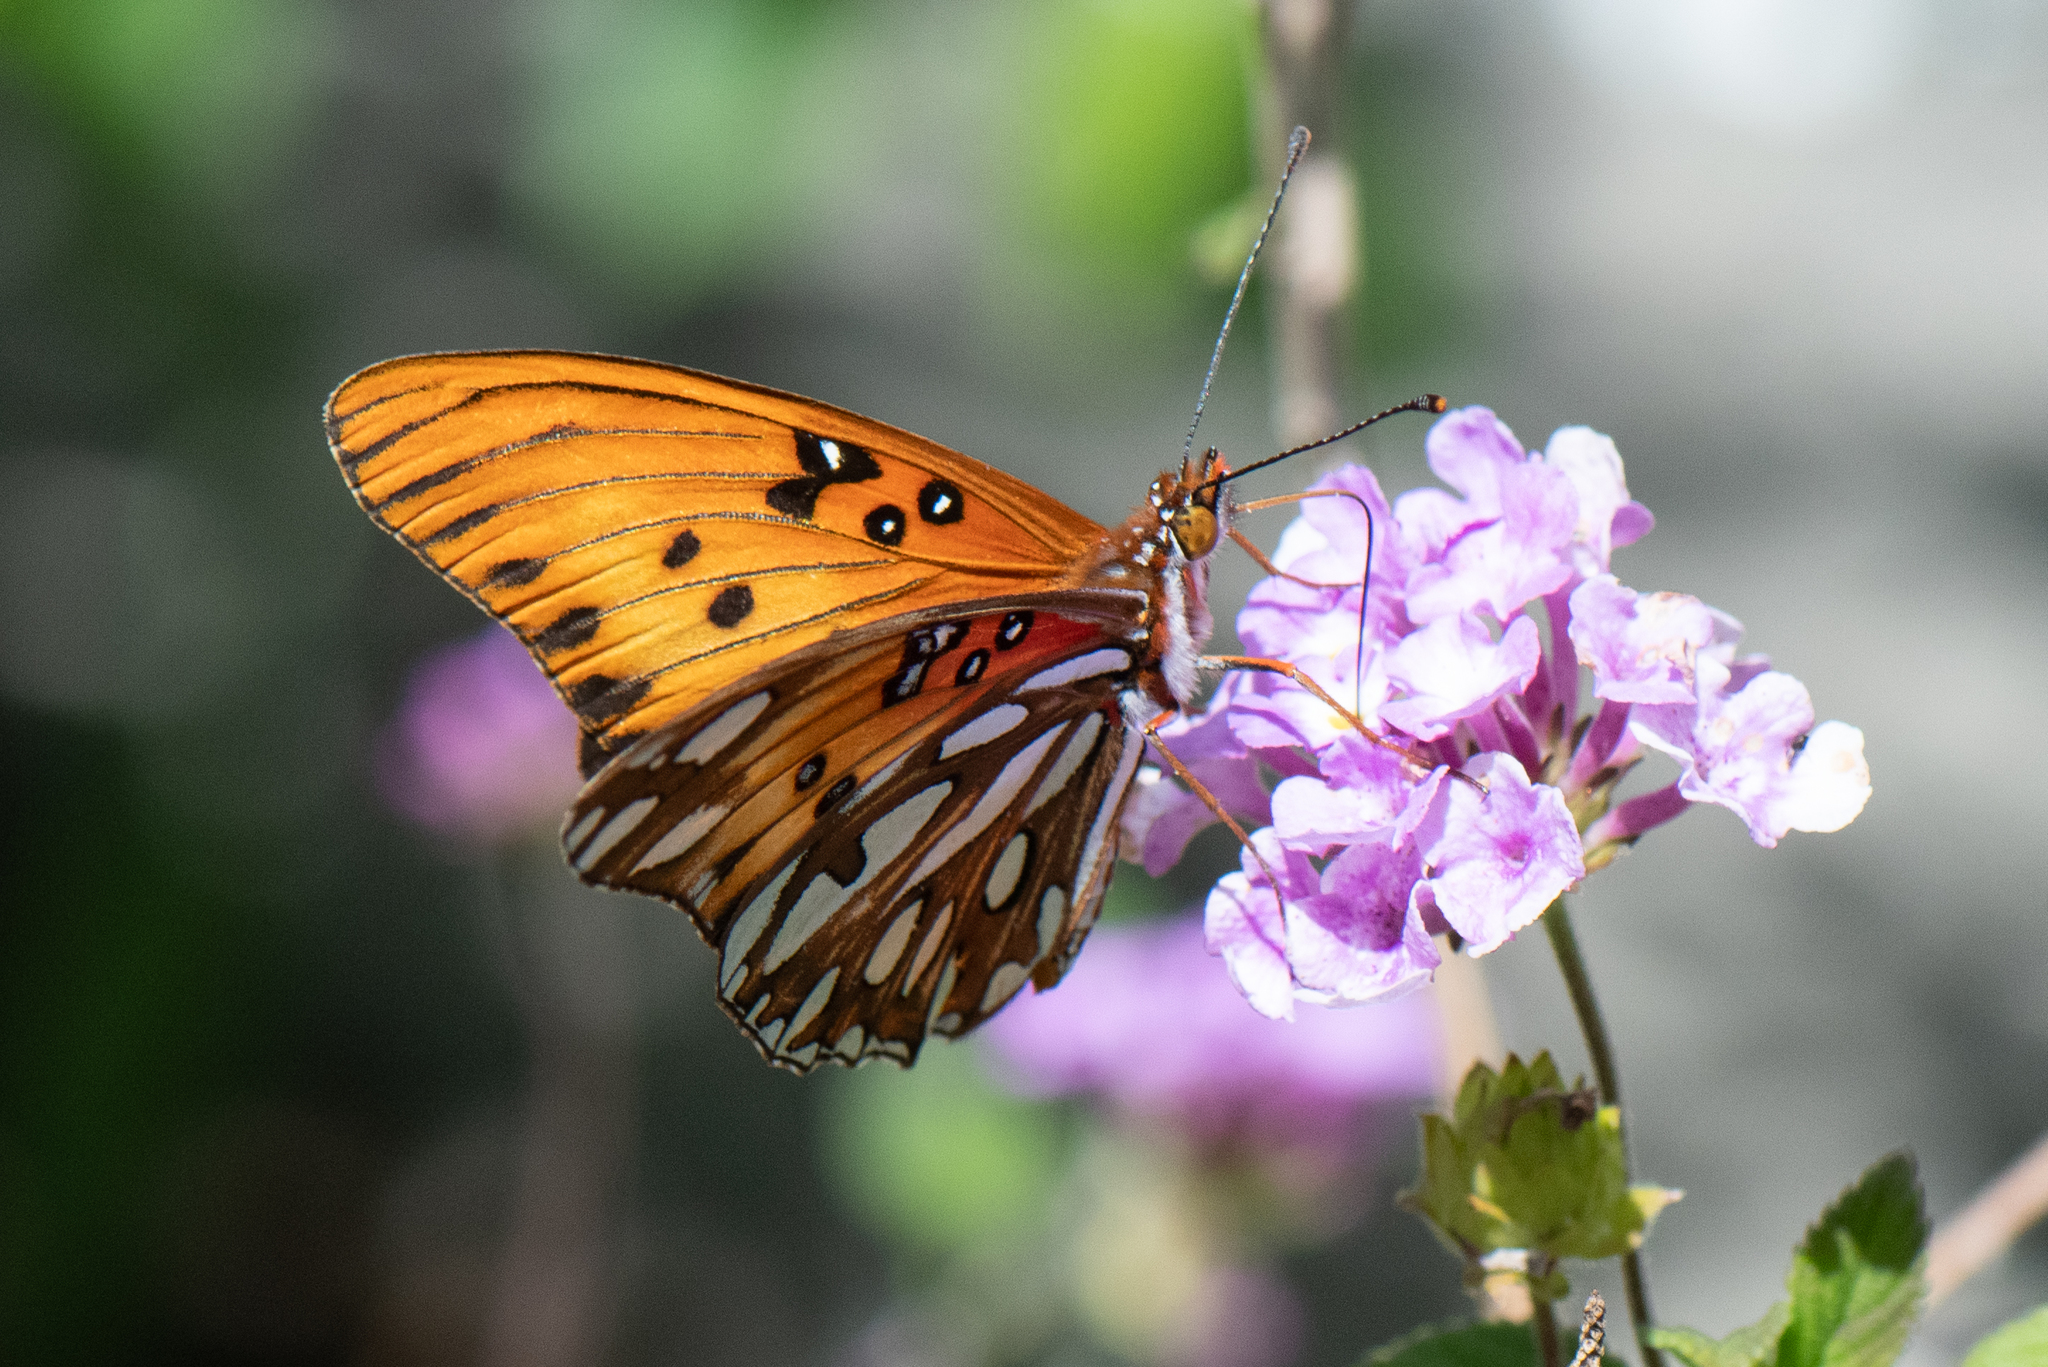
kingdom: Animalia
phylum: Arthropoda
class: Insecta
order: Lepidoptera
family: Nymphalidae
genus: Dione
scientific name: Dione vanillae
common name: Gulf fritillary
